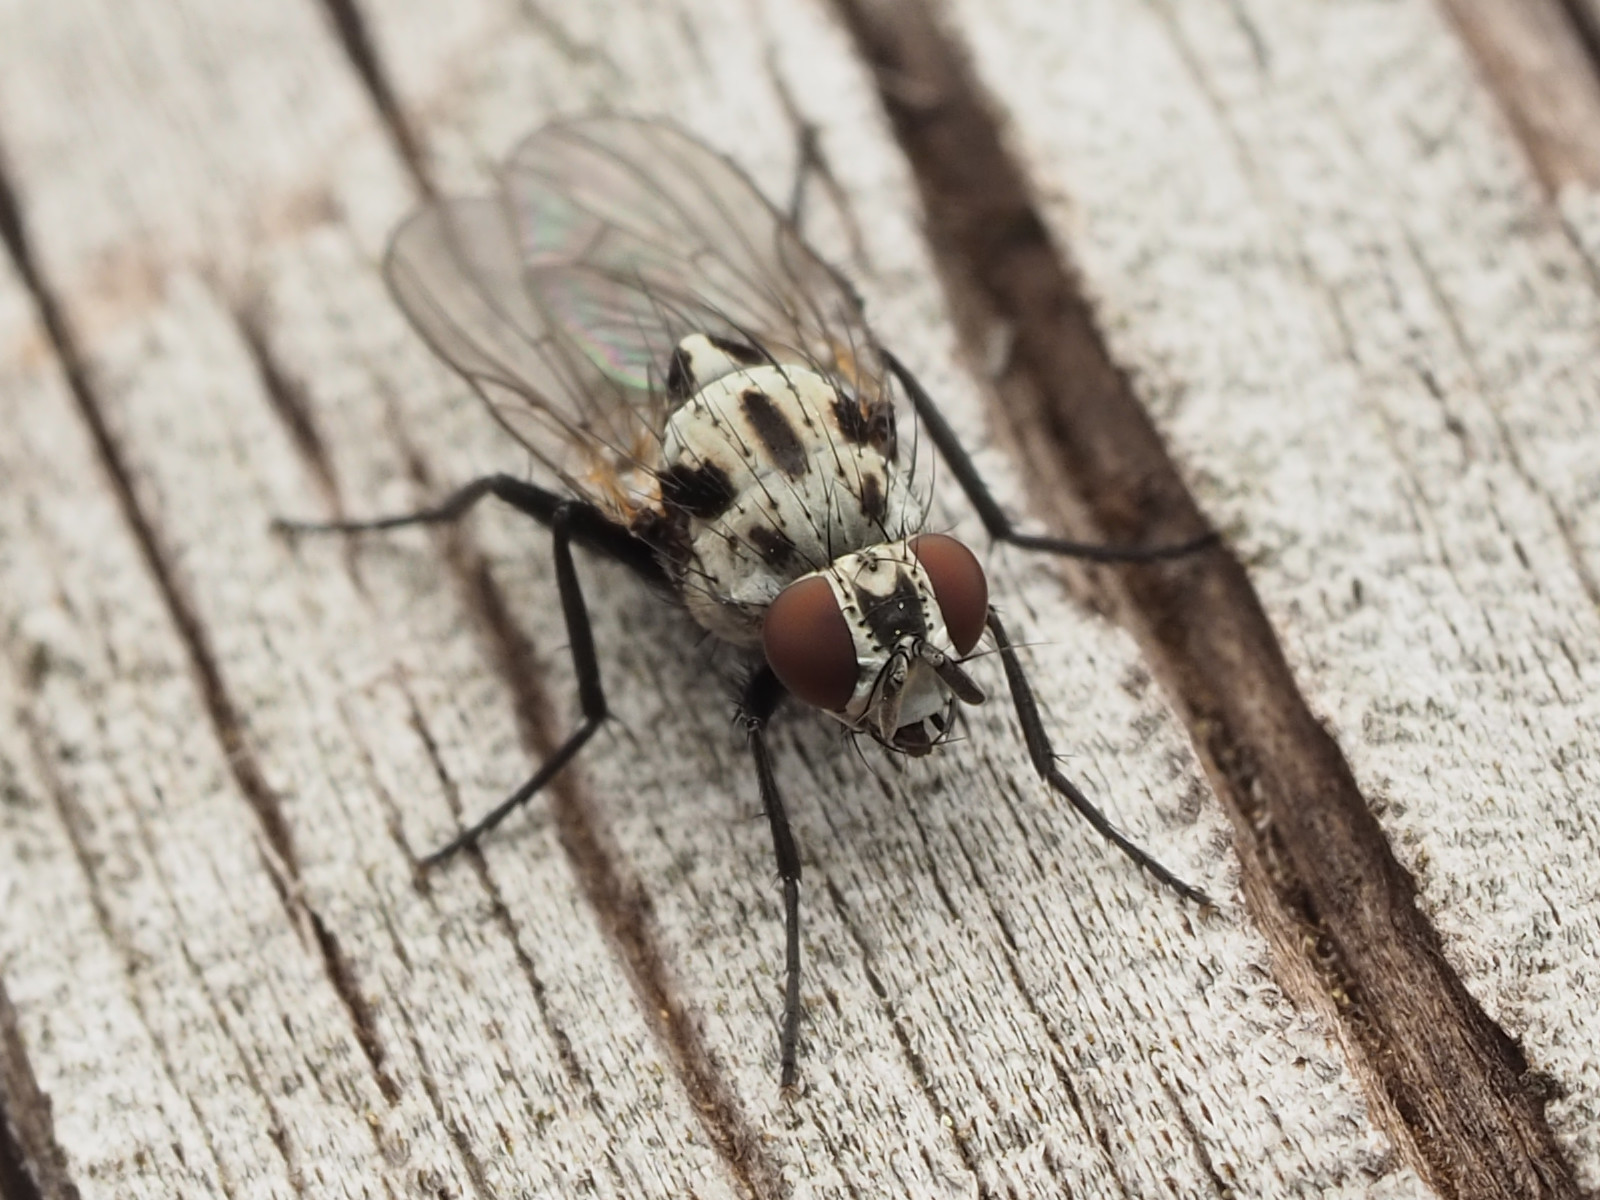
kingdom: Animalia
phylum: Arthropoda
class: Insecta
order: Diptera
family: Anthomyiidae
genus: Anthomyia
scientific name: Anthomyia pluvialis
